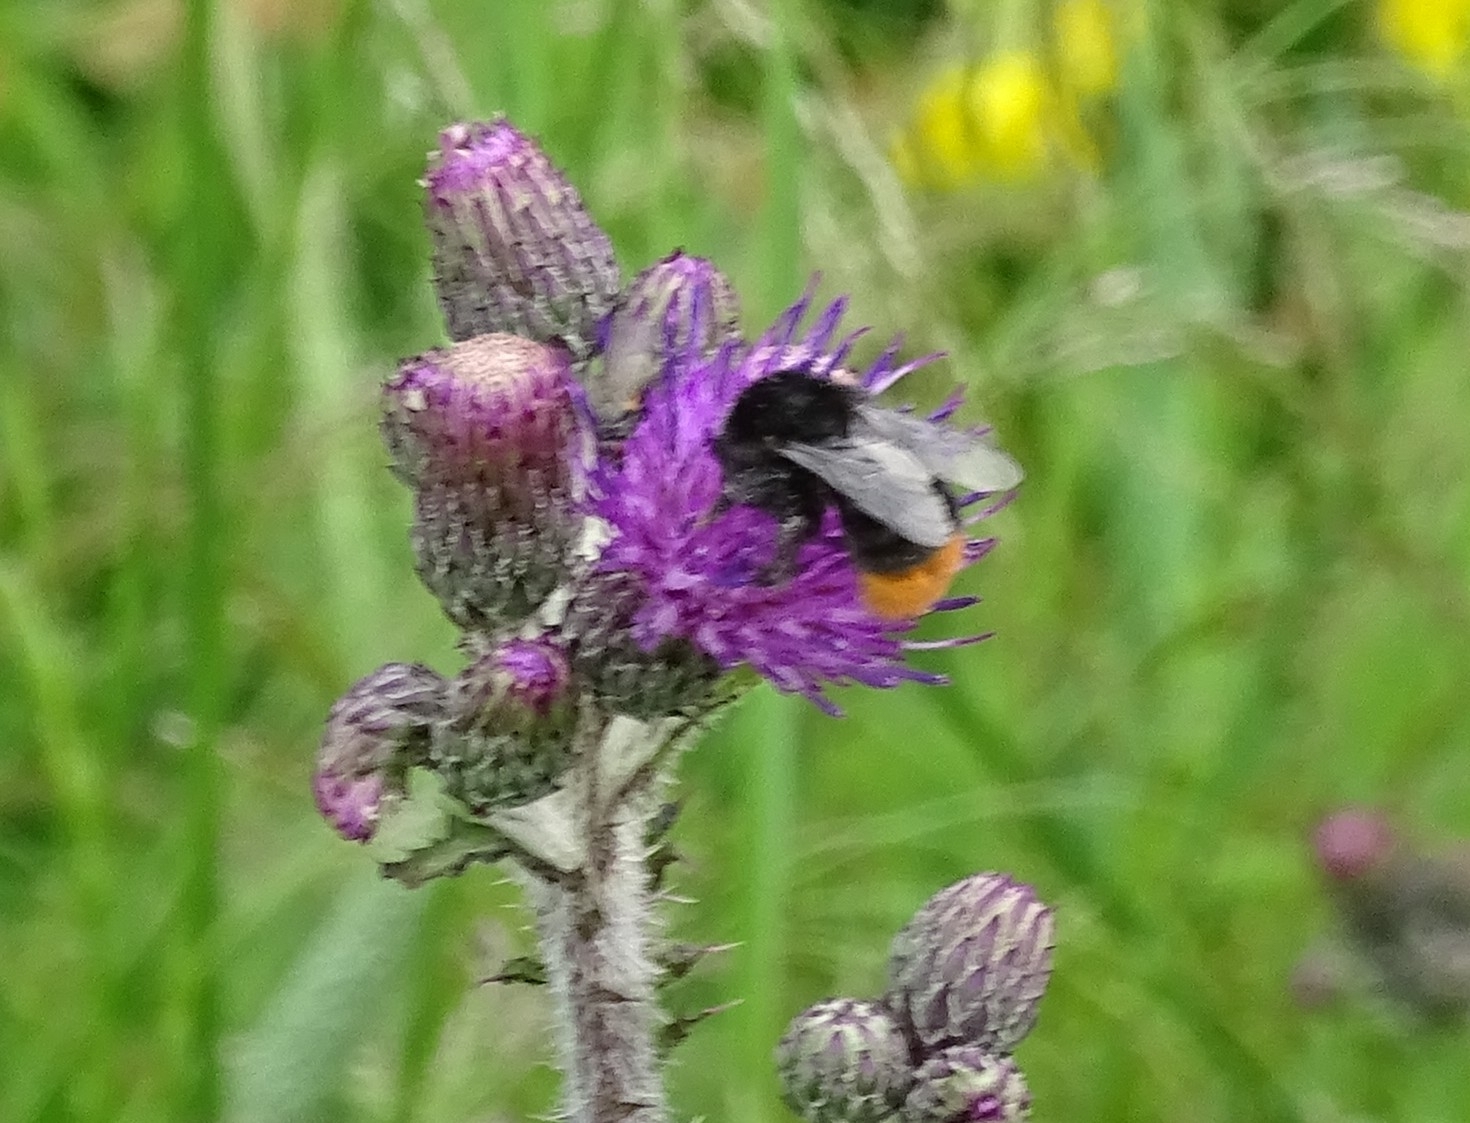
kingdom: Animalia
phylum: Arthropoda
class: Insecta
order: Hymenoptera
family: Apidae
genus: Bombus
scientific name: Bombus lapidarius
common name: Large red-tailed humble-bee
